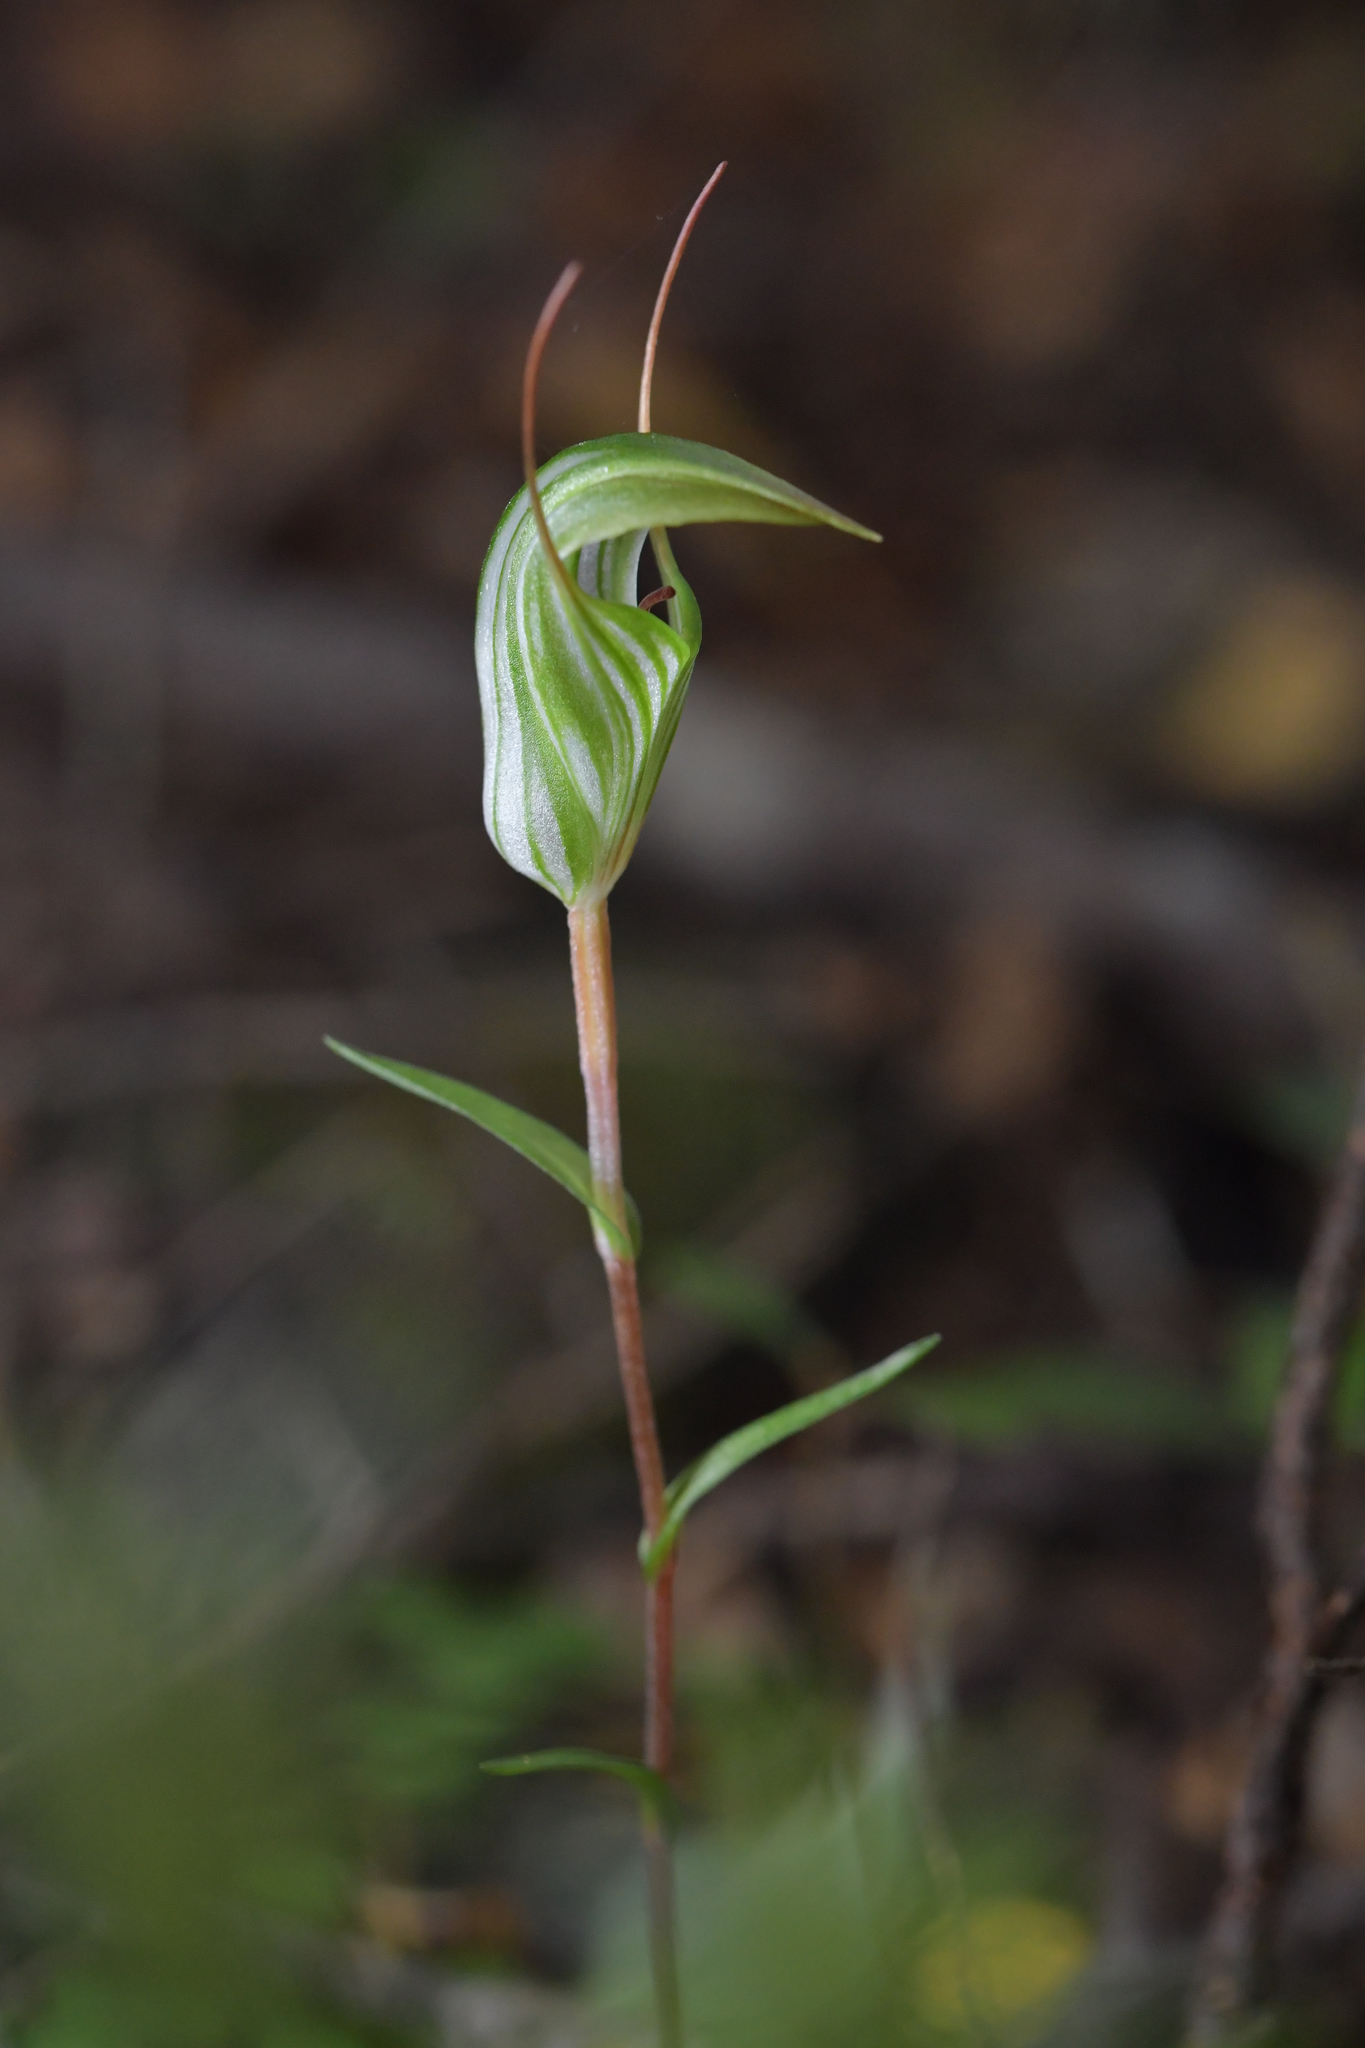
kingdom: Plantae
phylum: Tracheophyta
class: Liliopsida
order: Asparagales
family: Orchidaceae
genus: Pterostylis
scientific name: Pterostylis alobula
